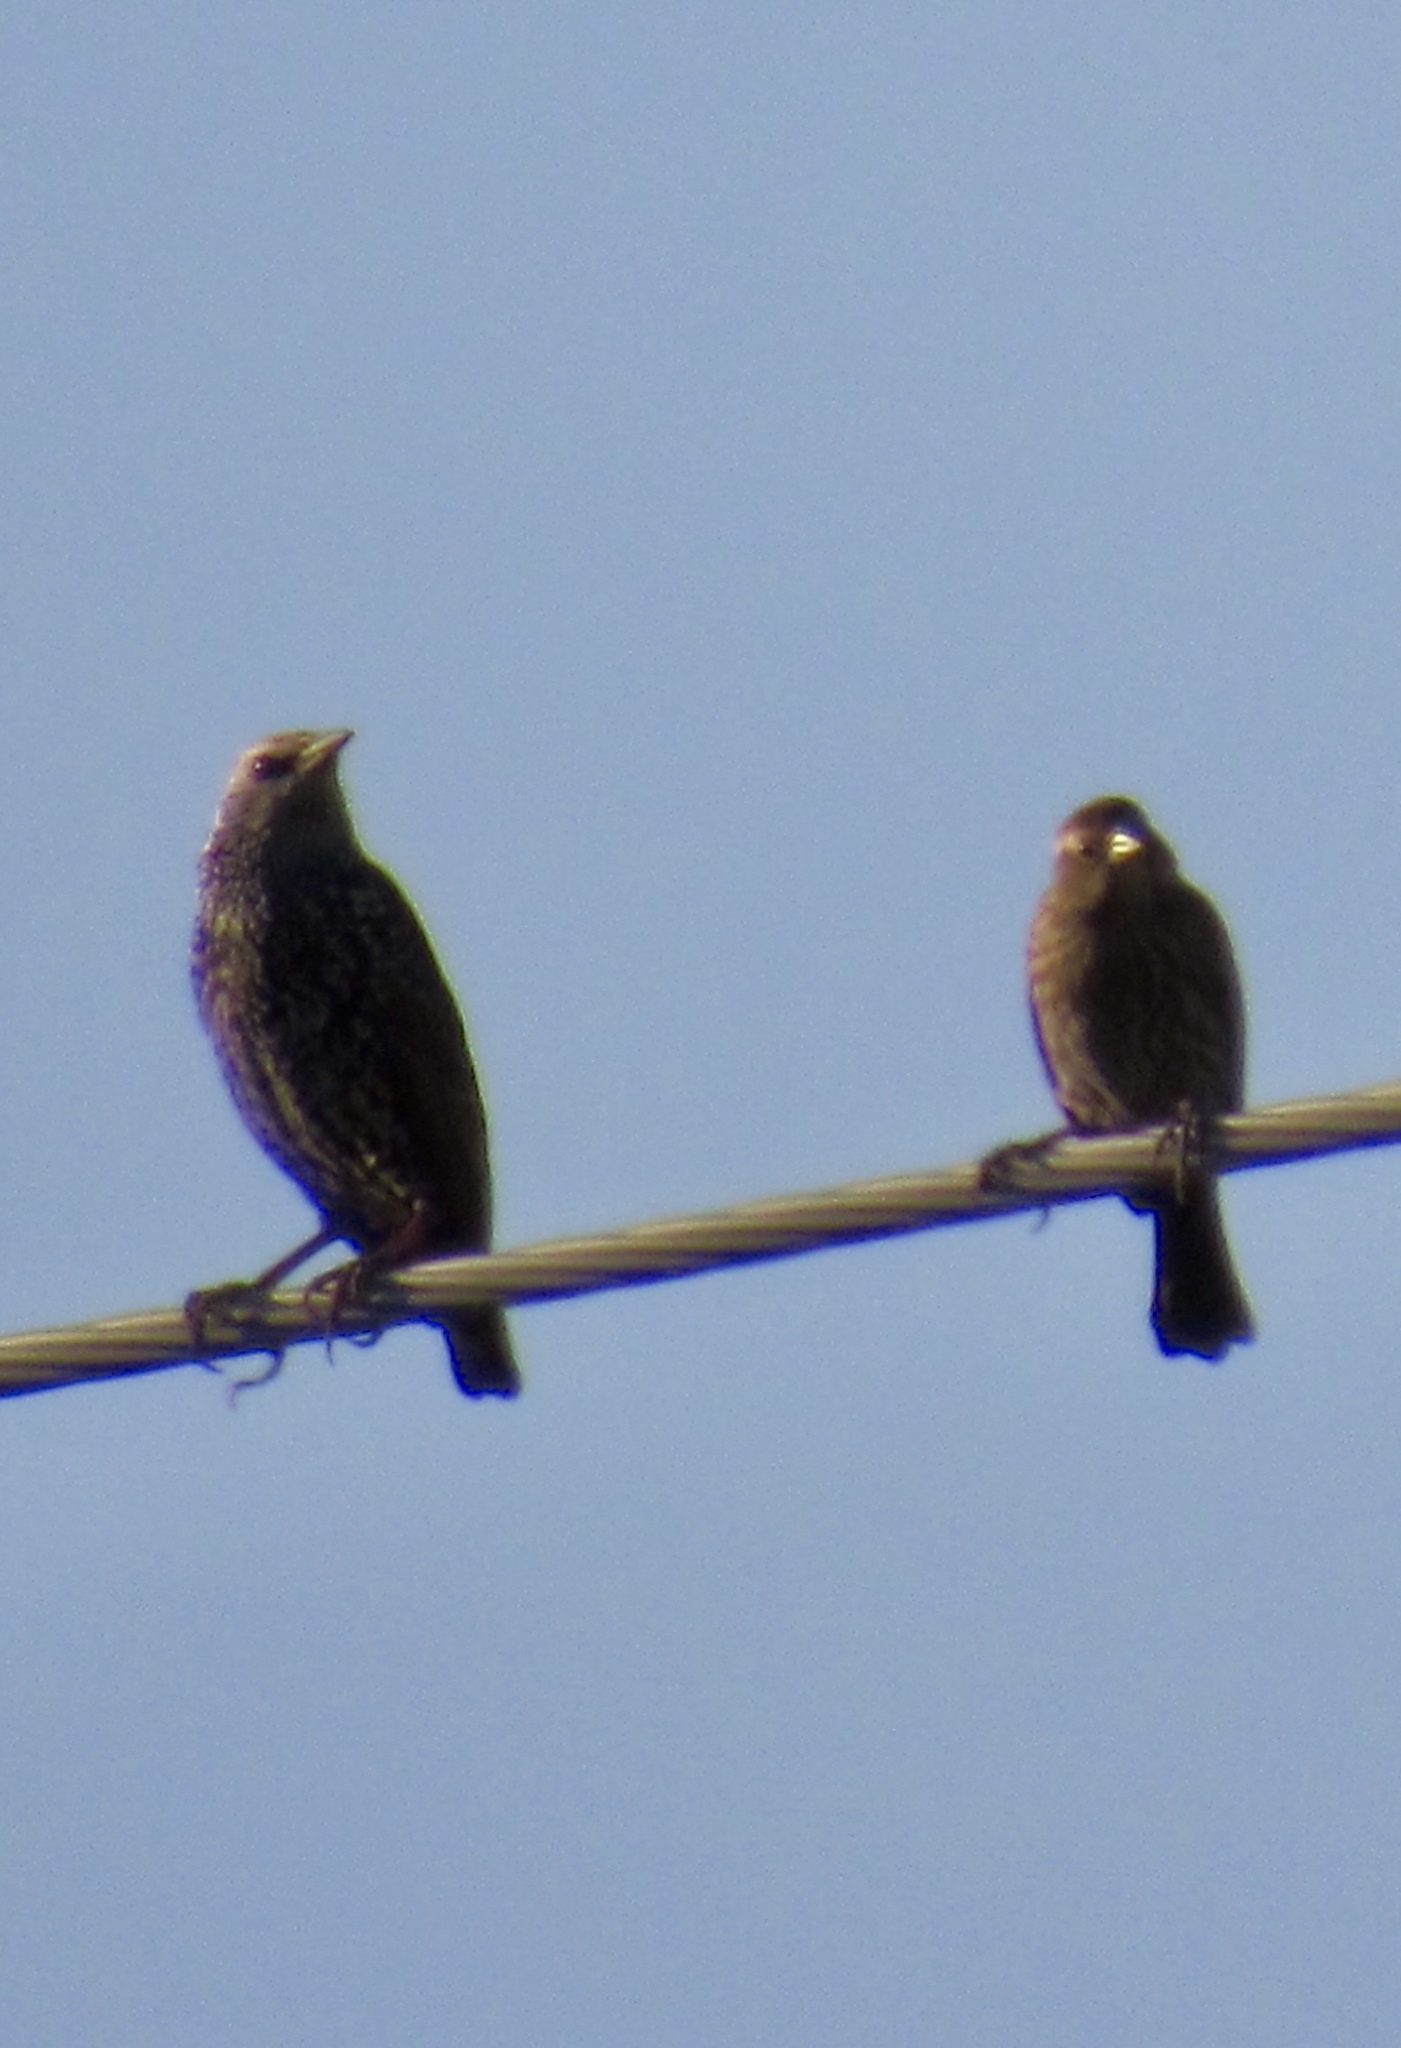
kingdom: Animalia
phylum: Chordata
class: Aves
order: Passeriformes
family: Sturnidae
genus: Sturnus
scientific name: Sturnus vulgaris
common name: Common starling
